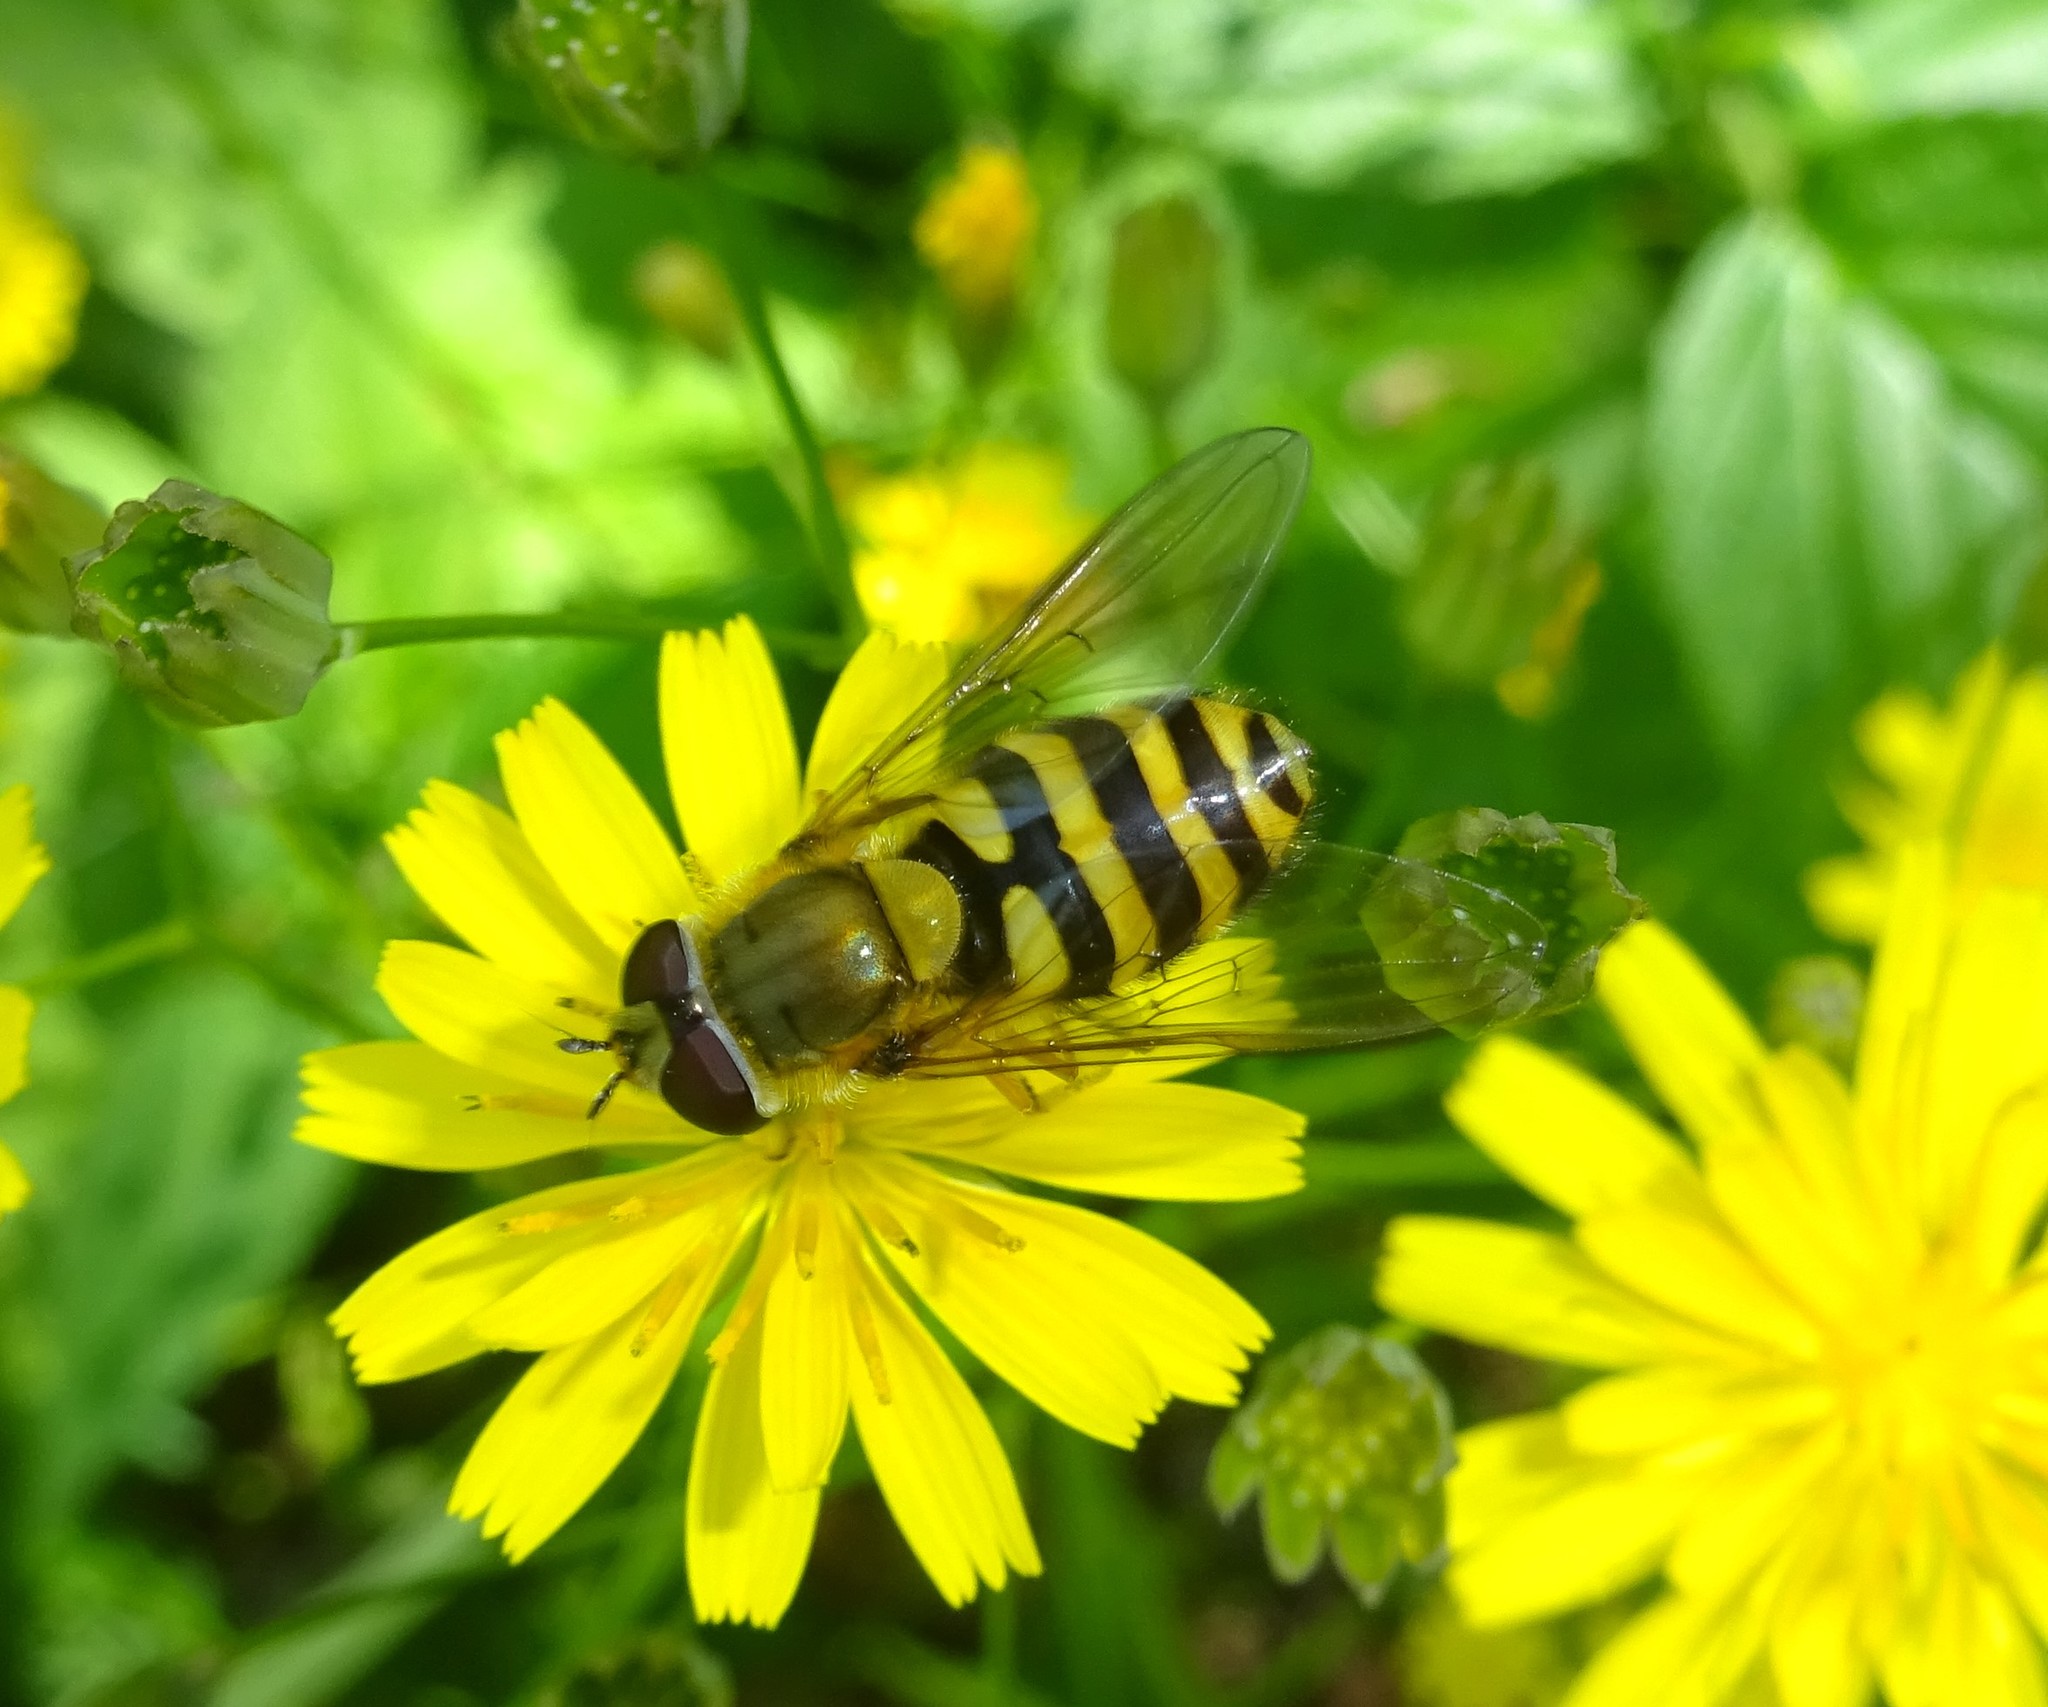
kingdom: Animalia
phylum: Arthropoda
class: Insecta
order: Diptera
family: Syrphidae
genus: Syrphus
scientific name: Syrphus ribesii
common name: Common flower fly
